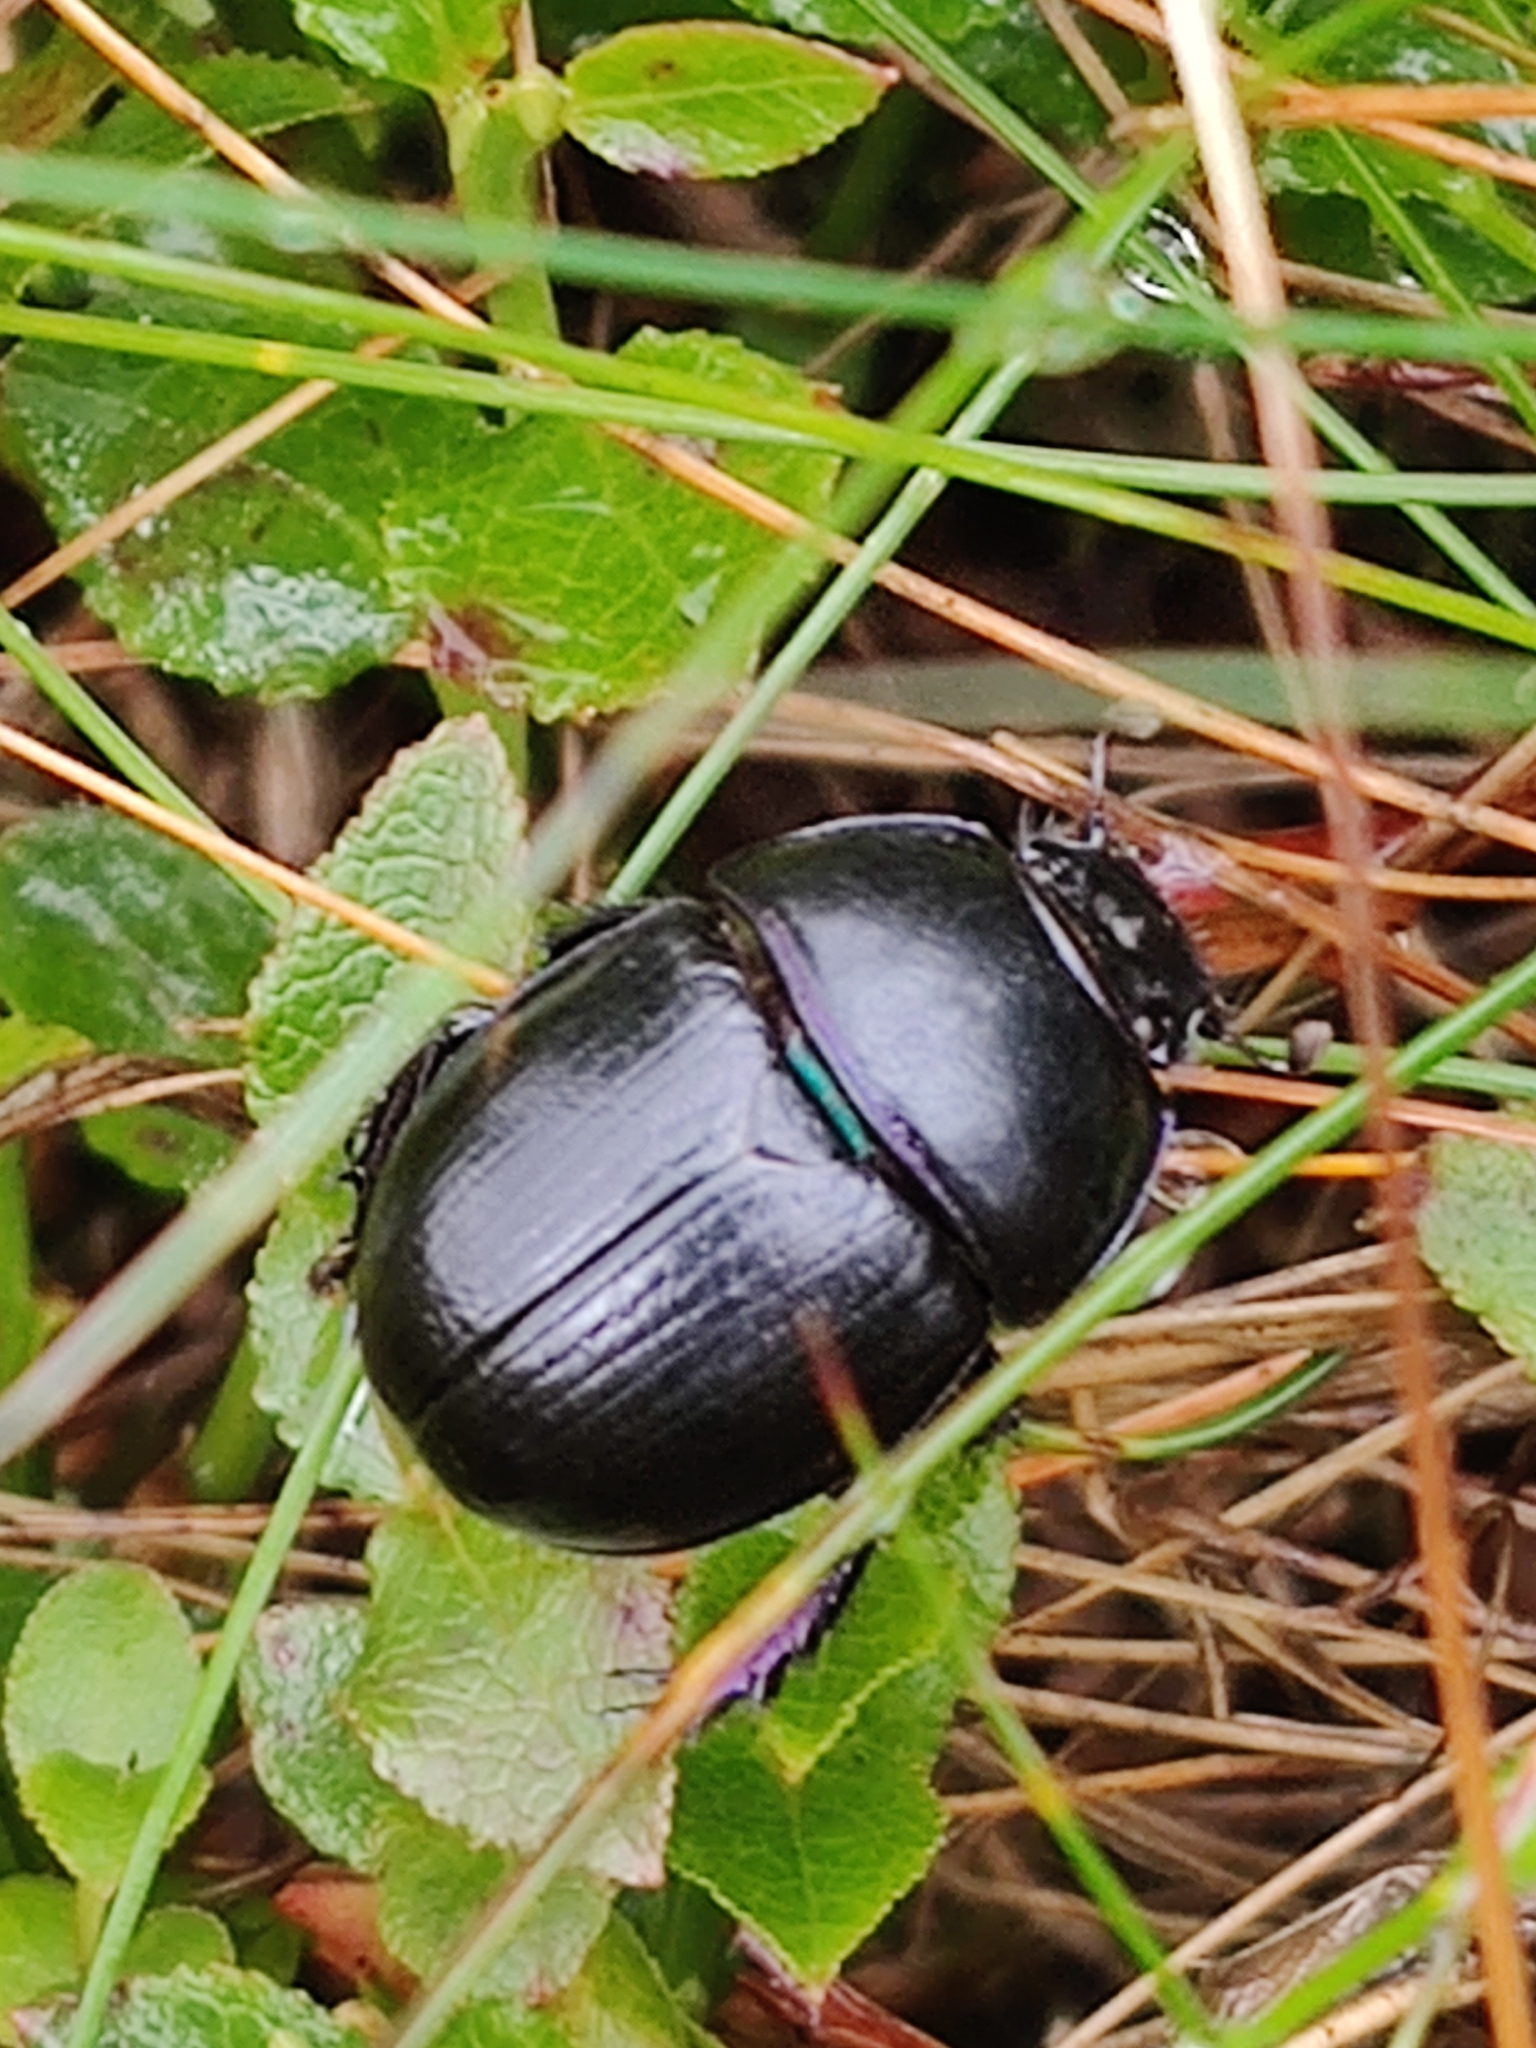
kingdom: Animalia
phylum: Arthropoda
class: Insecta
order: Coleoptera
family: Geotrupidae
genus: Anoplotrupes
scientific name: Anoplotrupes stercorosus
